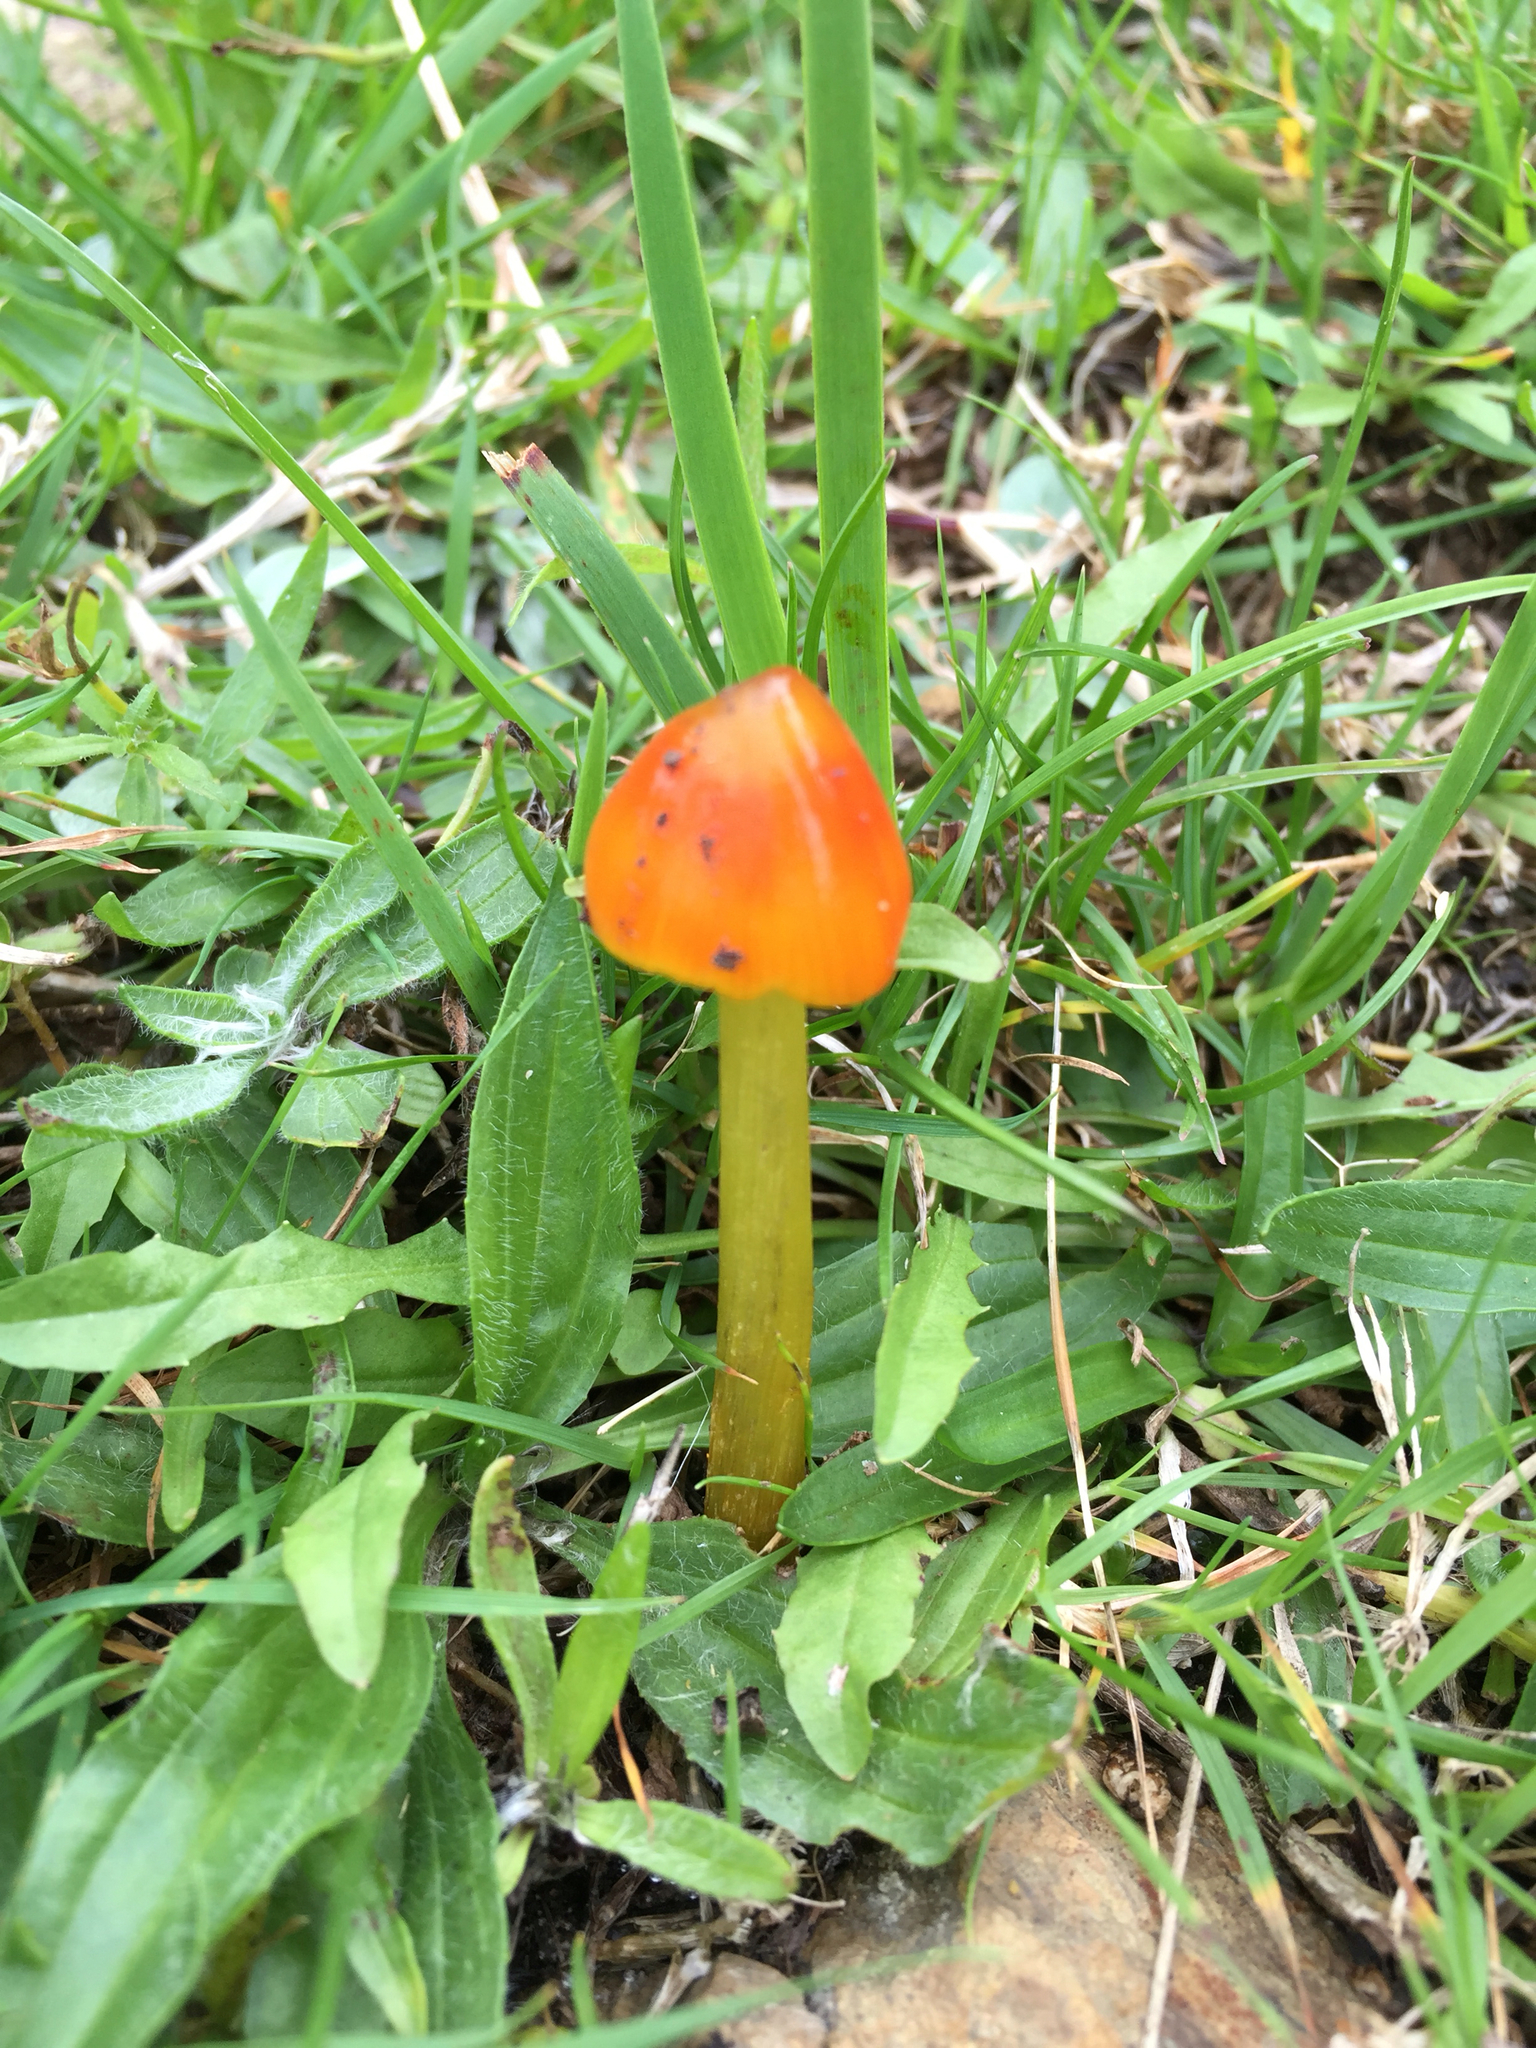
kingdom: Fungi
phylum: Basidiomycota
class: Agaricomycetes
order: Agaricales
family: Hygrophoraceae
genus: Hygrocybe
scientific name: Hygrocybe conica
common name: Blackening wax-cap
